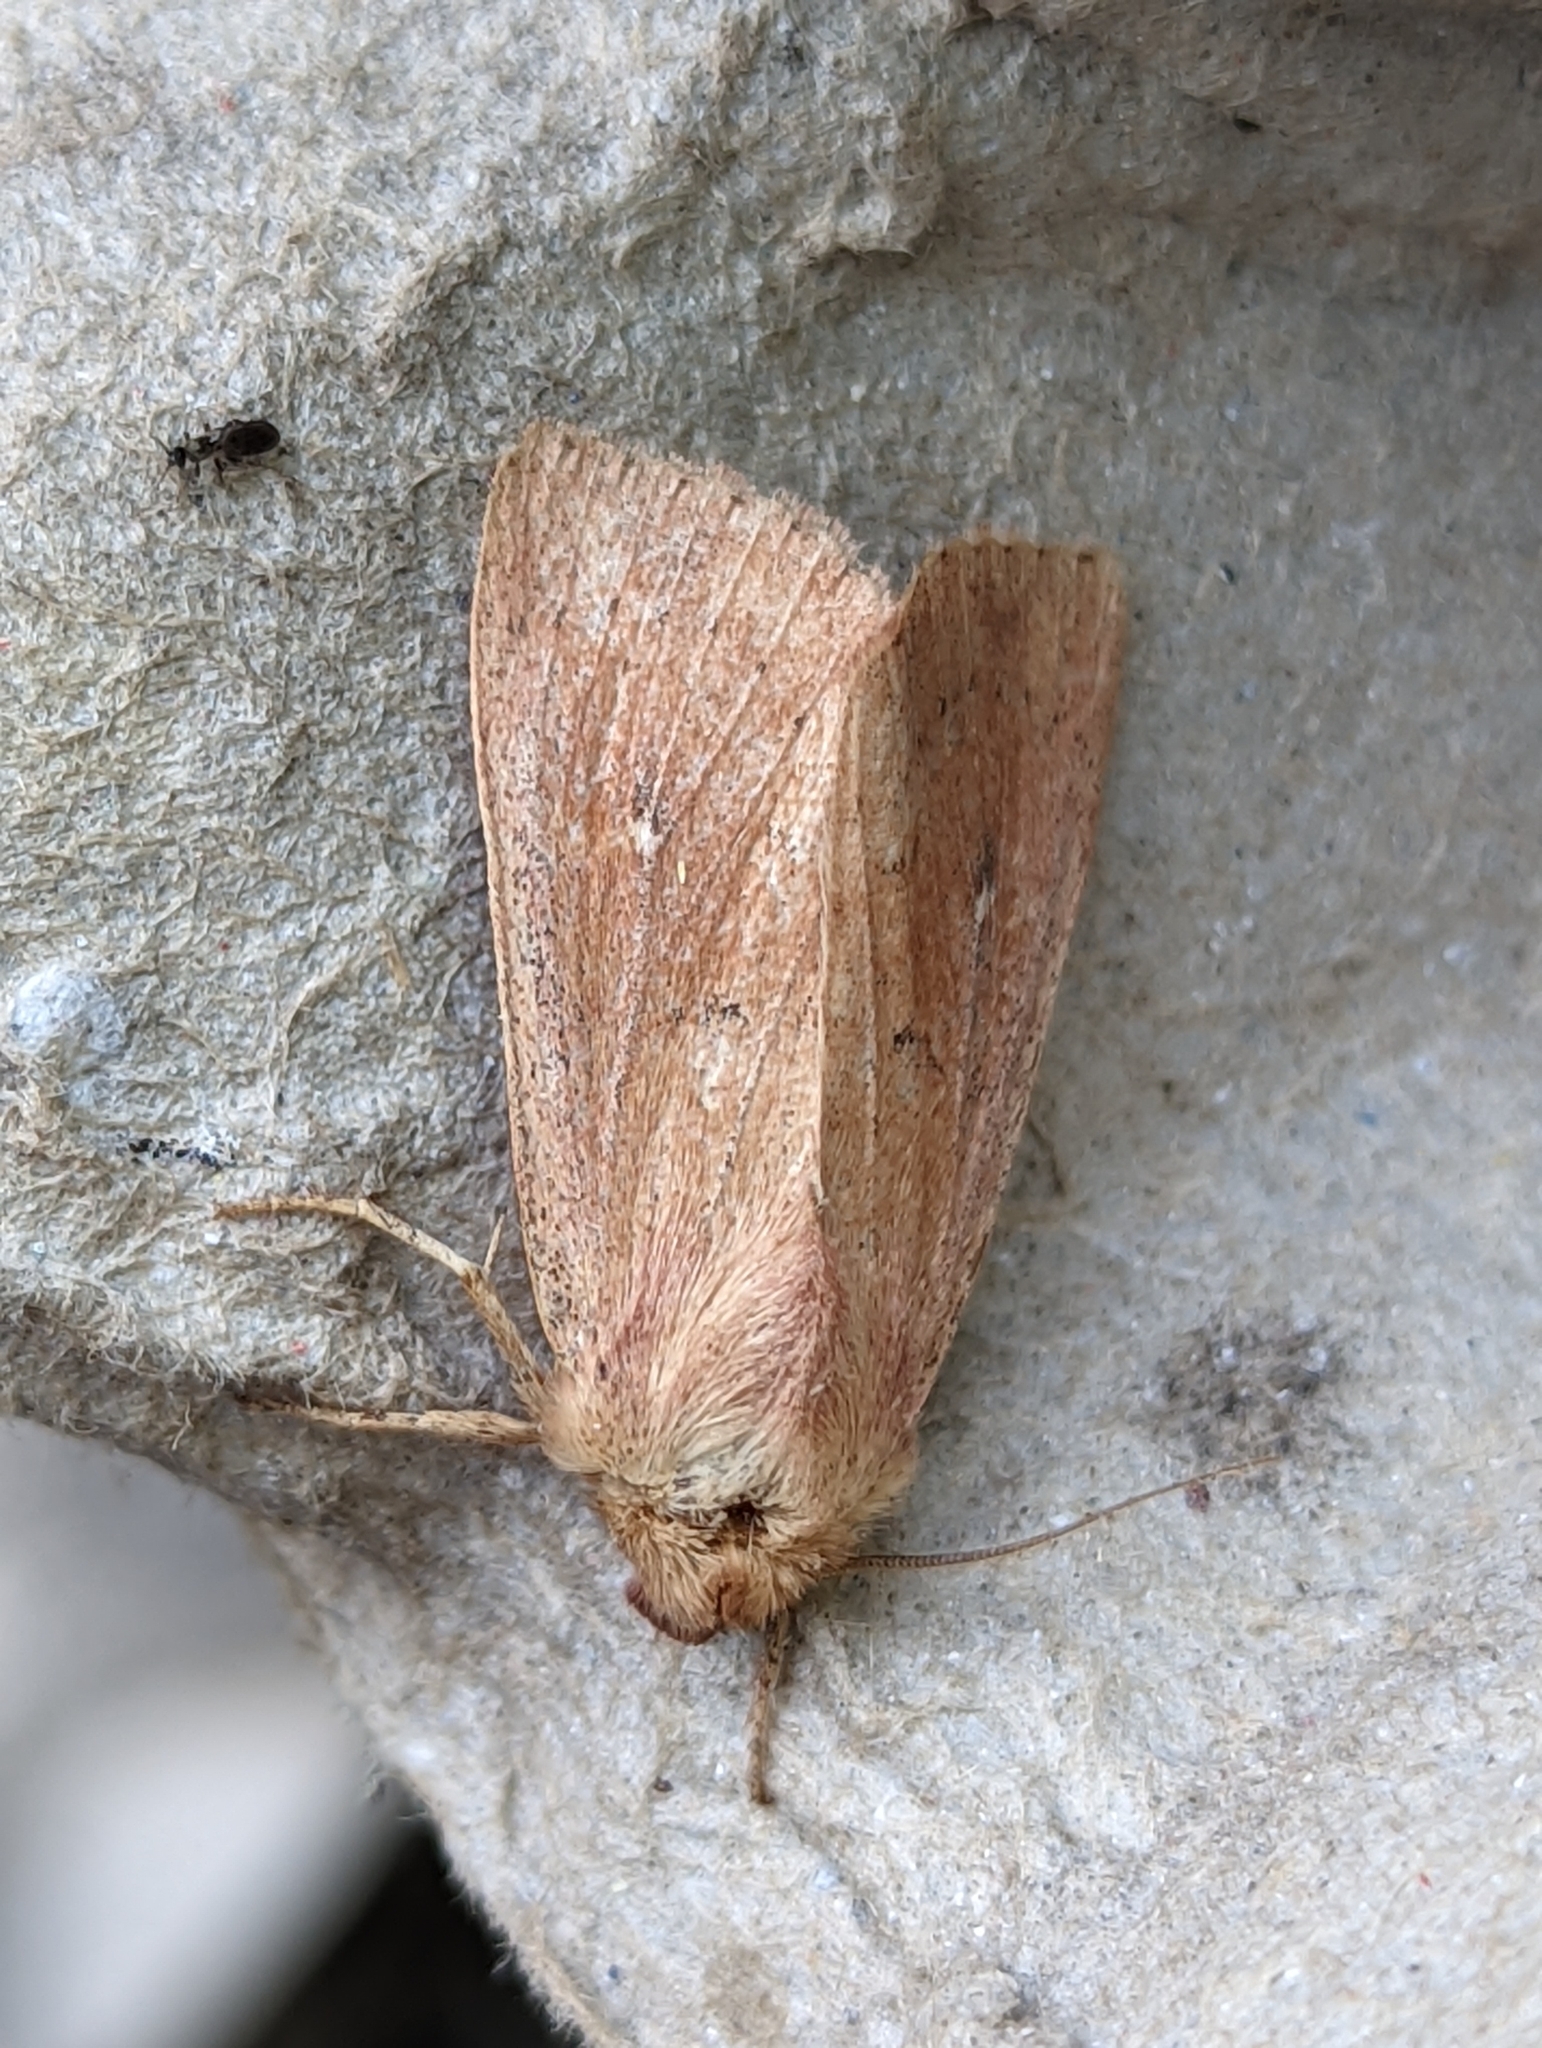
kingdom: Animalia
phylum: Arthropoda
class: Insecta
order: Lepidoptera
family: Noctuidae
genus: Mythimna
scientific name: Mythimna ferrago
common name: Clay
